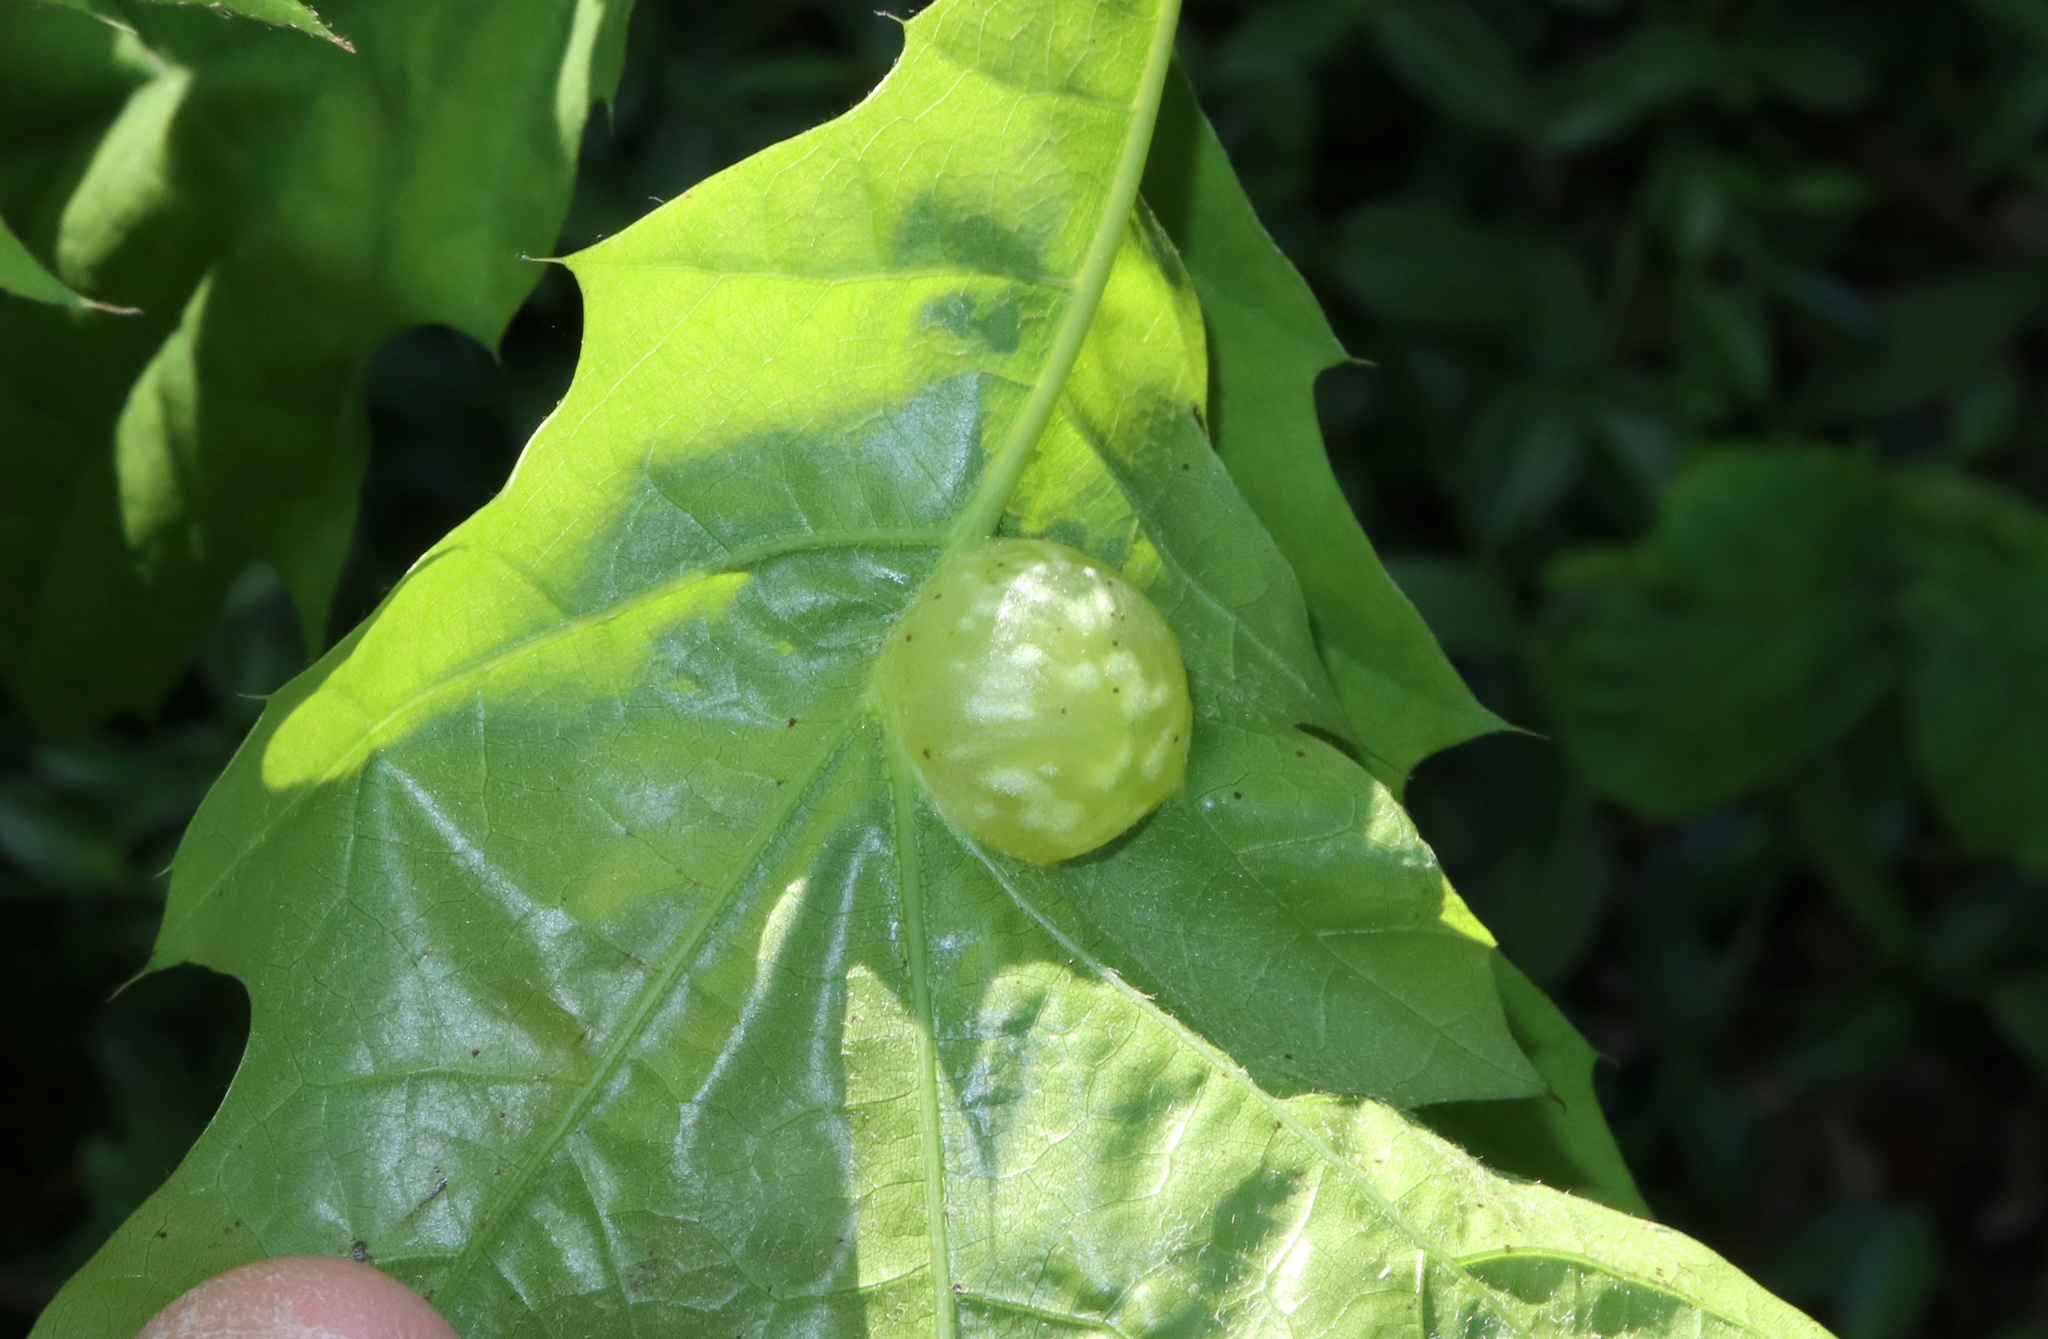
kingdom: Animalia
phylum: Arthropoda
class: Insecta
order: Hymenoptera
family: Cynipidae
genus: Dryocosmus
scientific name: Dryocosmus quercuspalustris
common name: Succulent oak gall wasp
